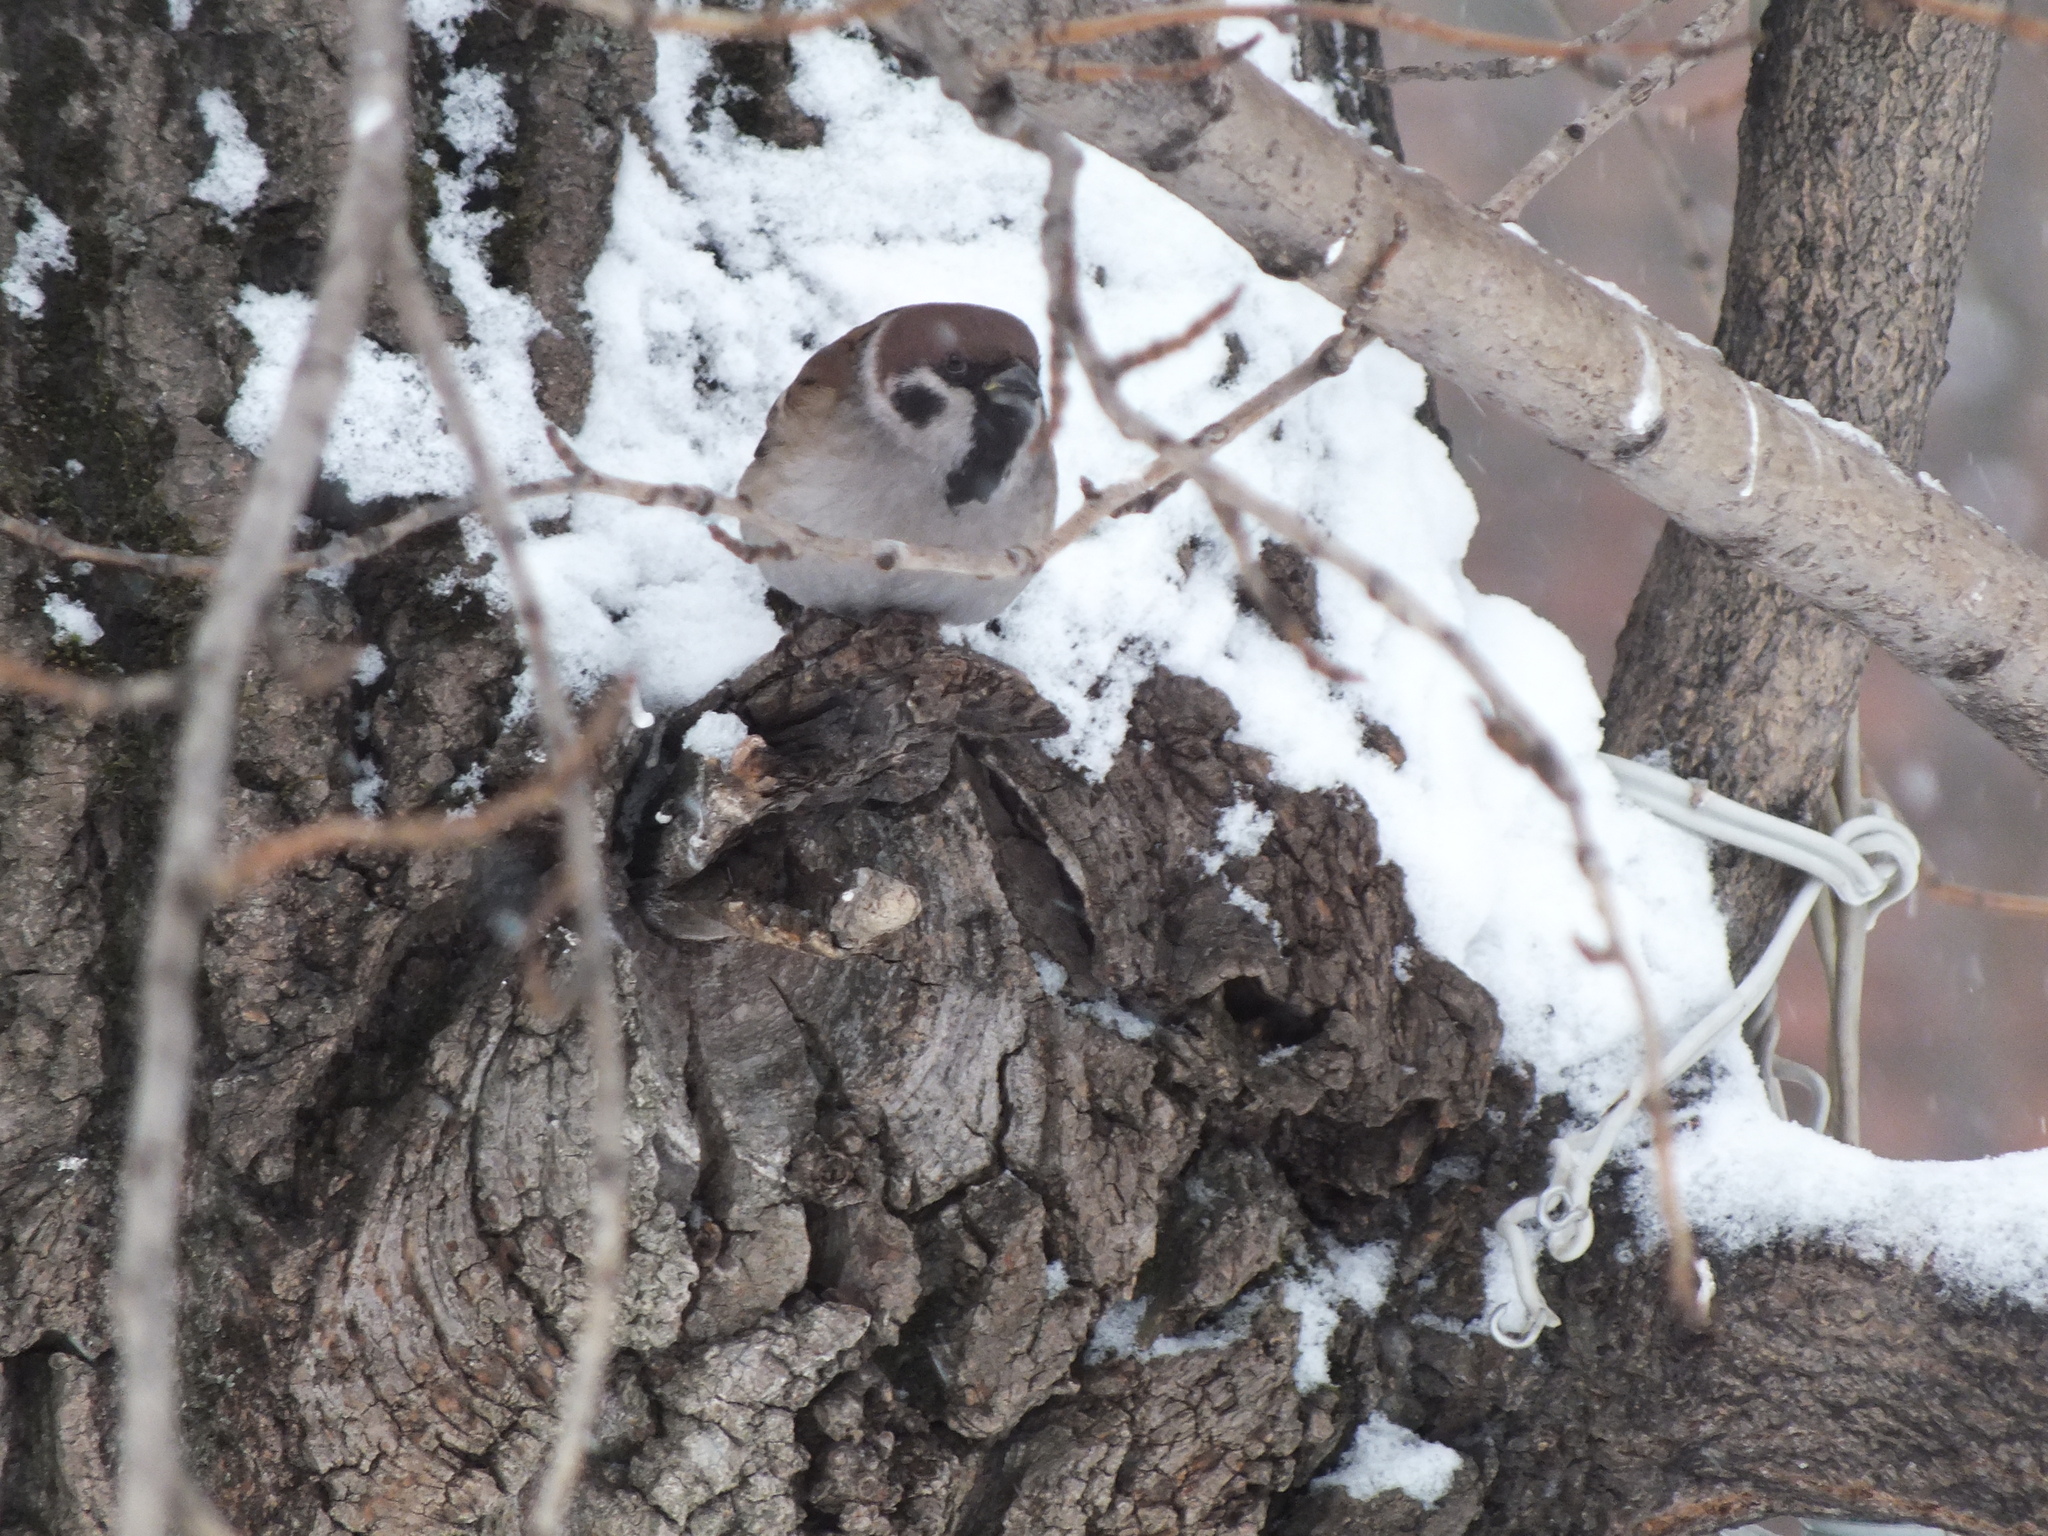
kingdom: Animalia
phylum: Chordata
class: Aves
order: Passeriformes
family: Passeridae
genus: Passer
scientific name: Passer montanus
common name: Eurasian tree sparrow
